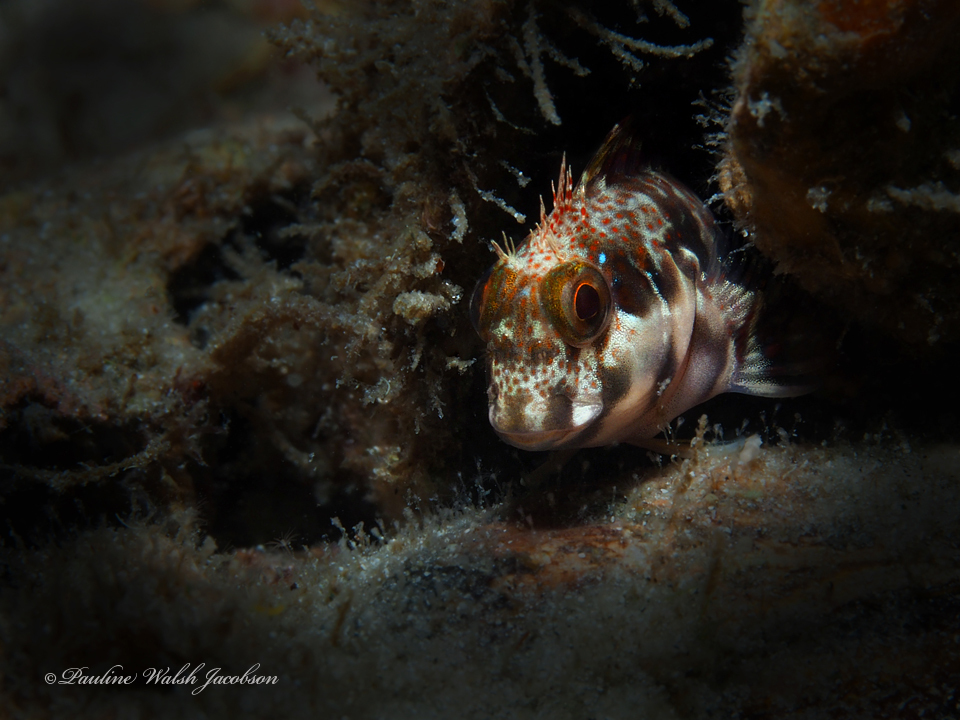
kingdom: Animalia
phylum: Chordata
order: Perciformes
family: Blenniidae
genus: Scartella
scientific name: Scartella cristata
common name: Molly miller
